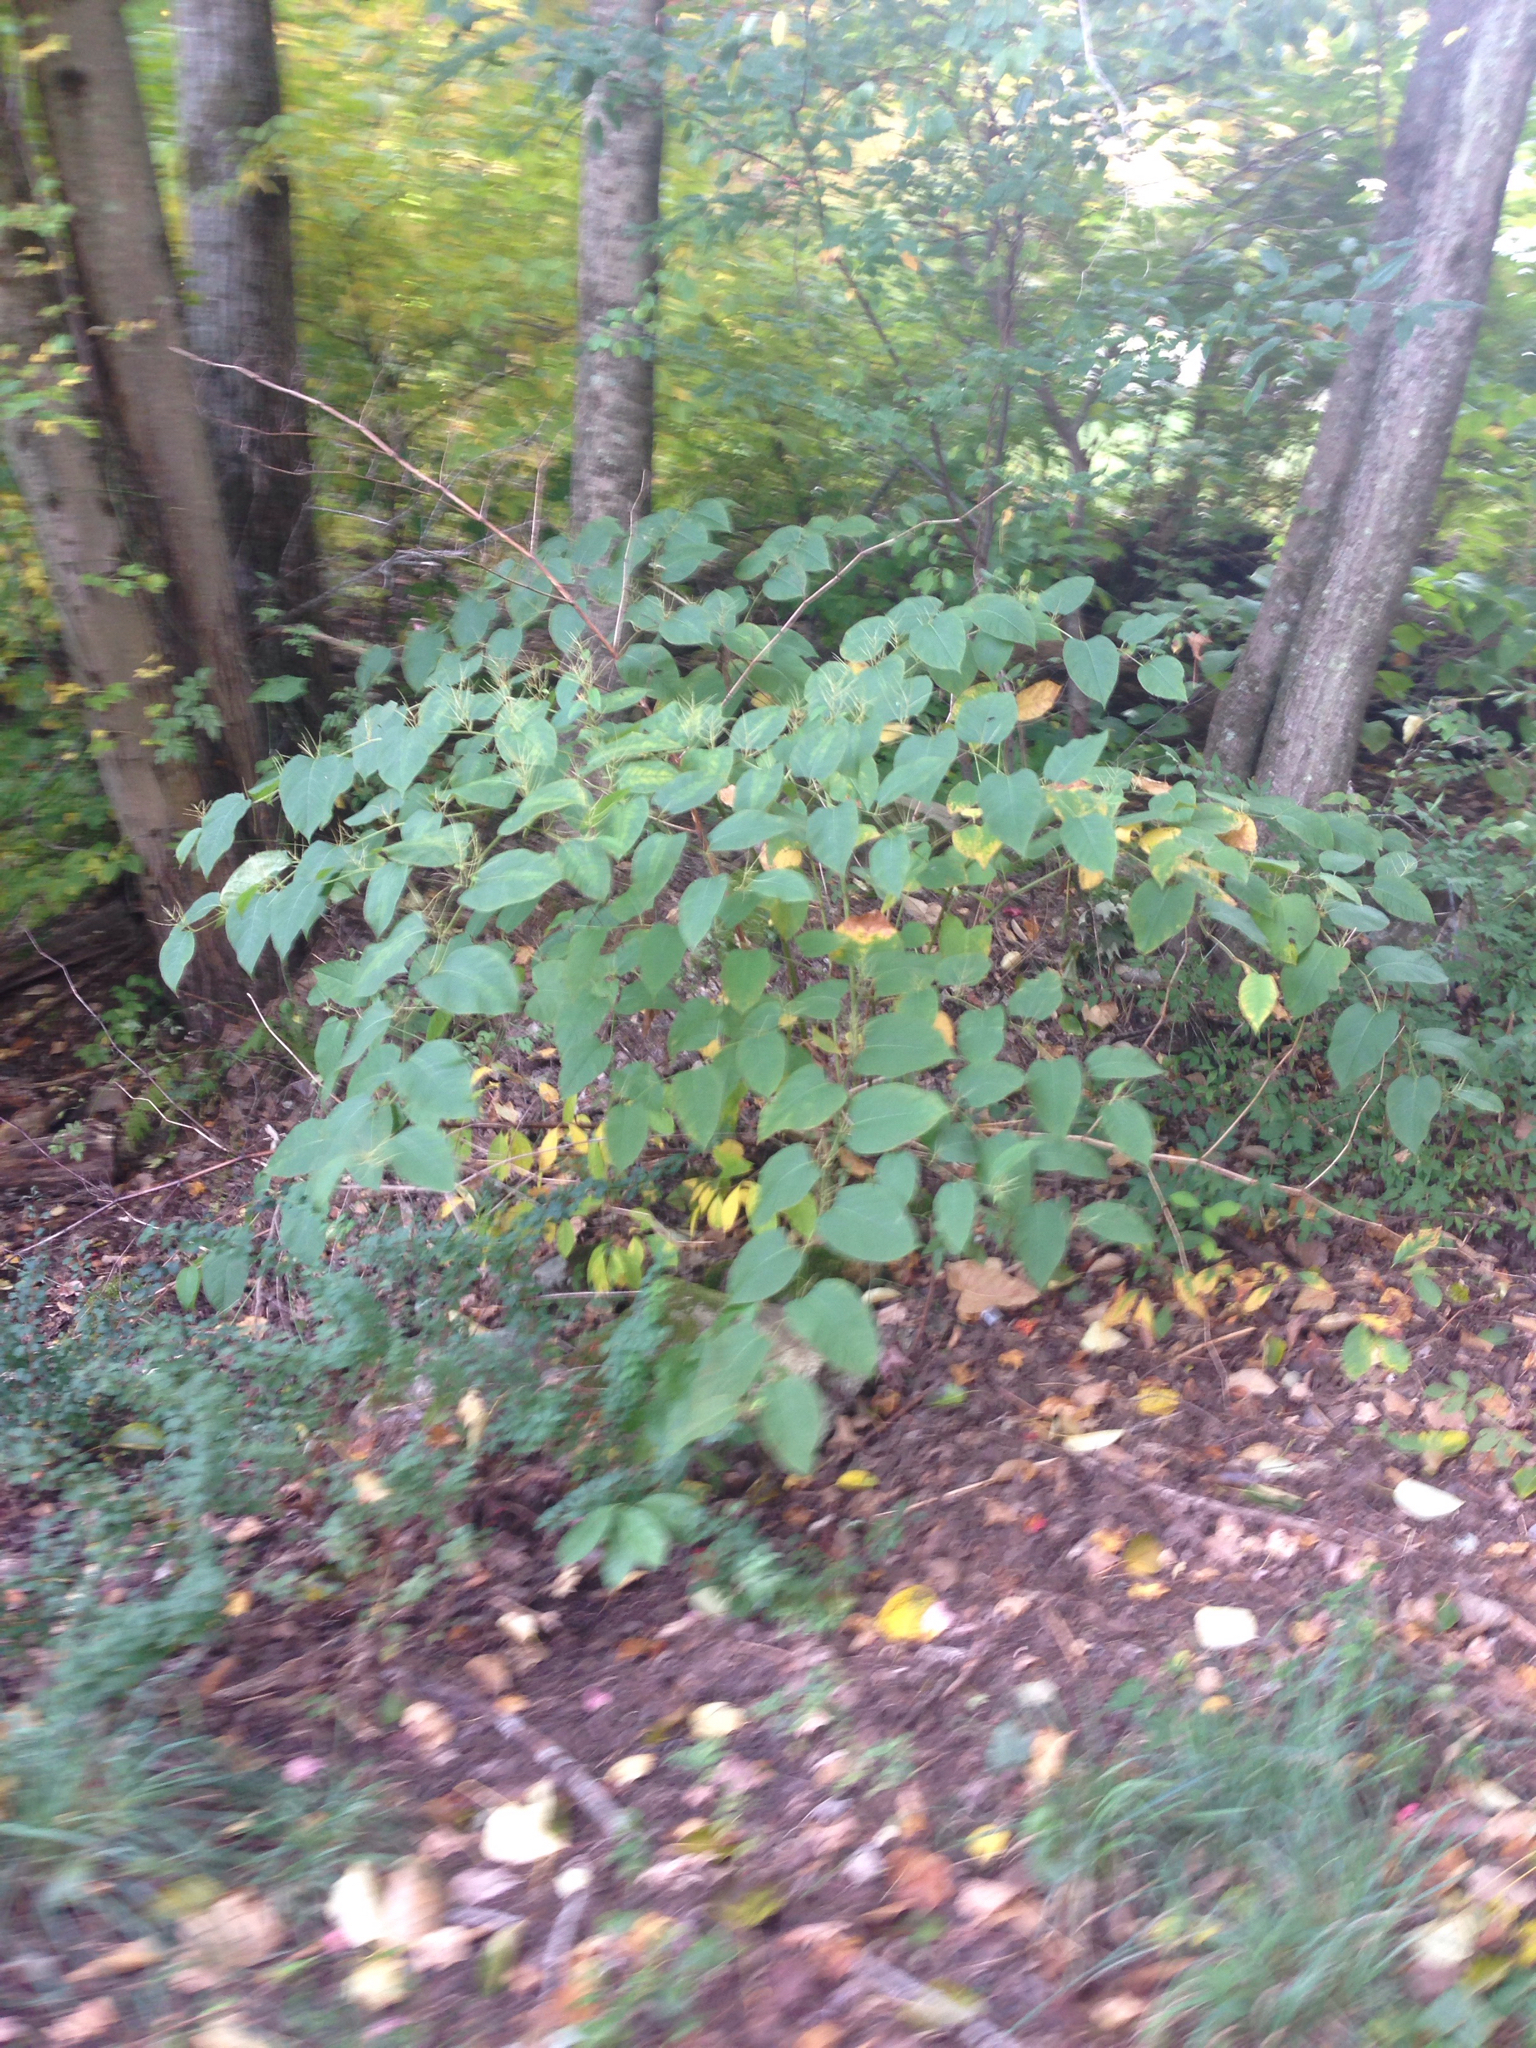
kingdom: Plantae
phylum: Tracheophyta
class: Magnoliopsida
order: Caryophyllales
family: Polygonaceae
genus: Reynoutria
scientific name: Reynoutria japonica
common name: Japanese knotweed
